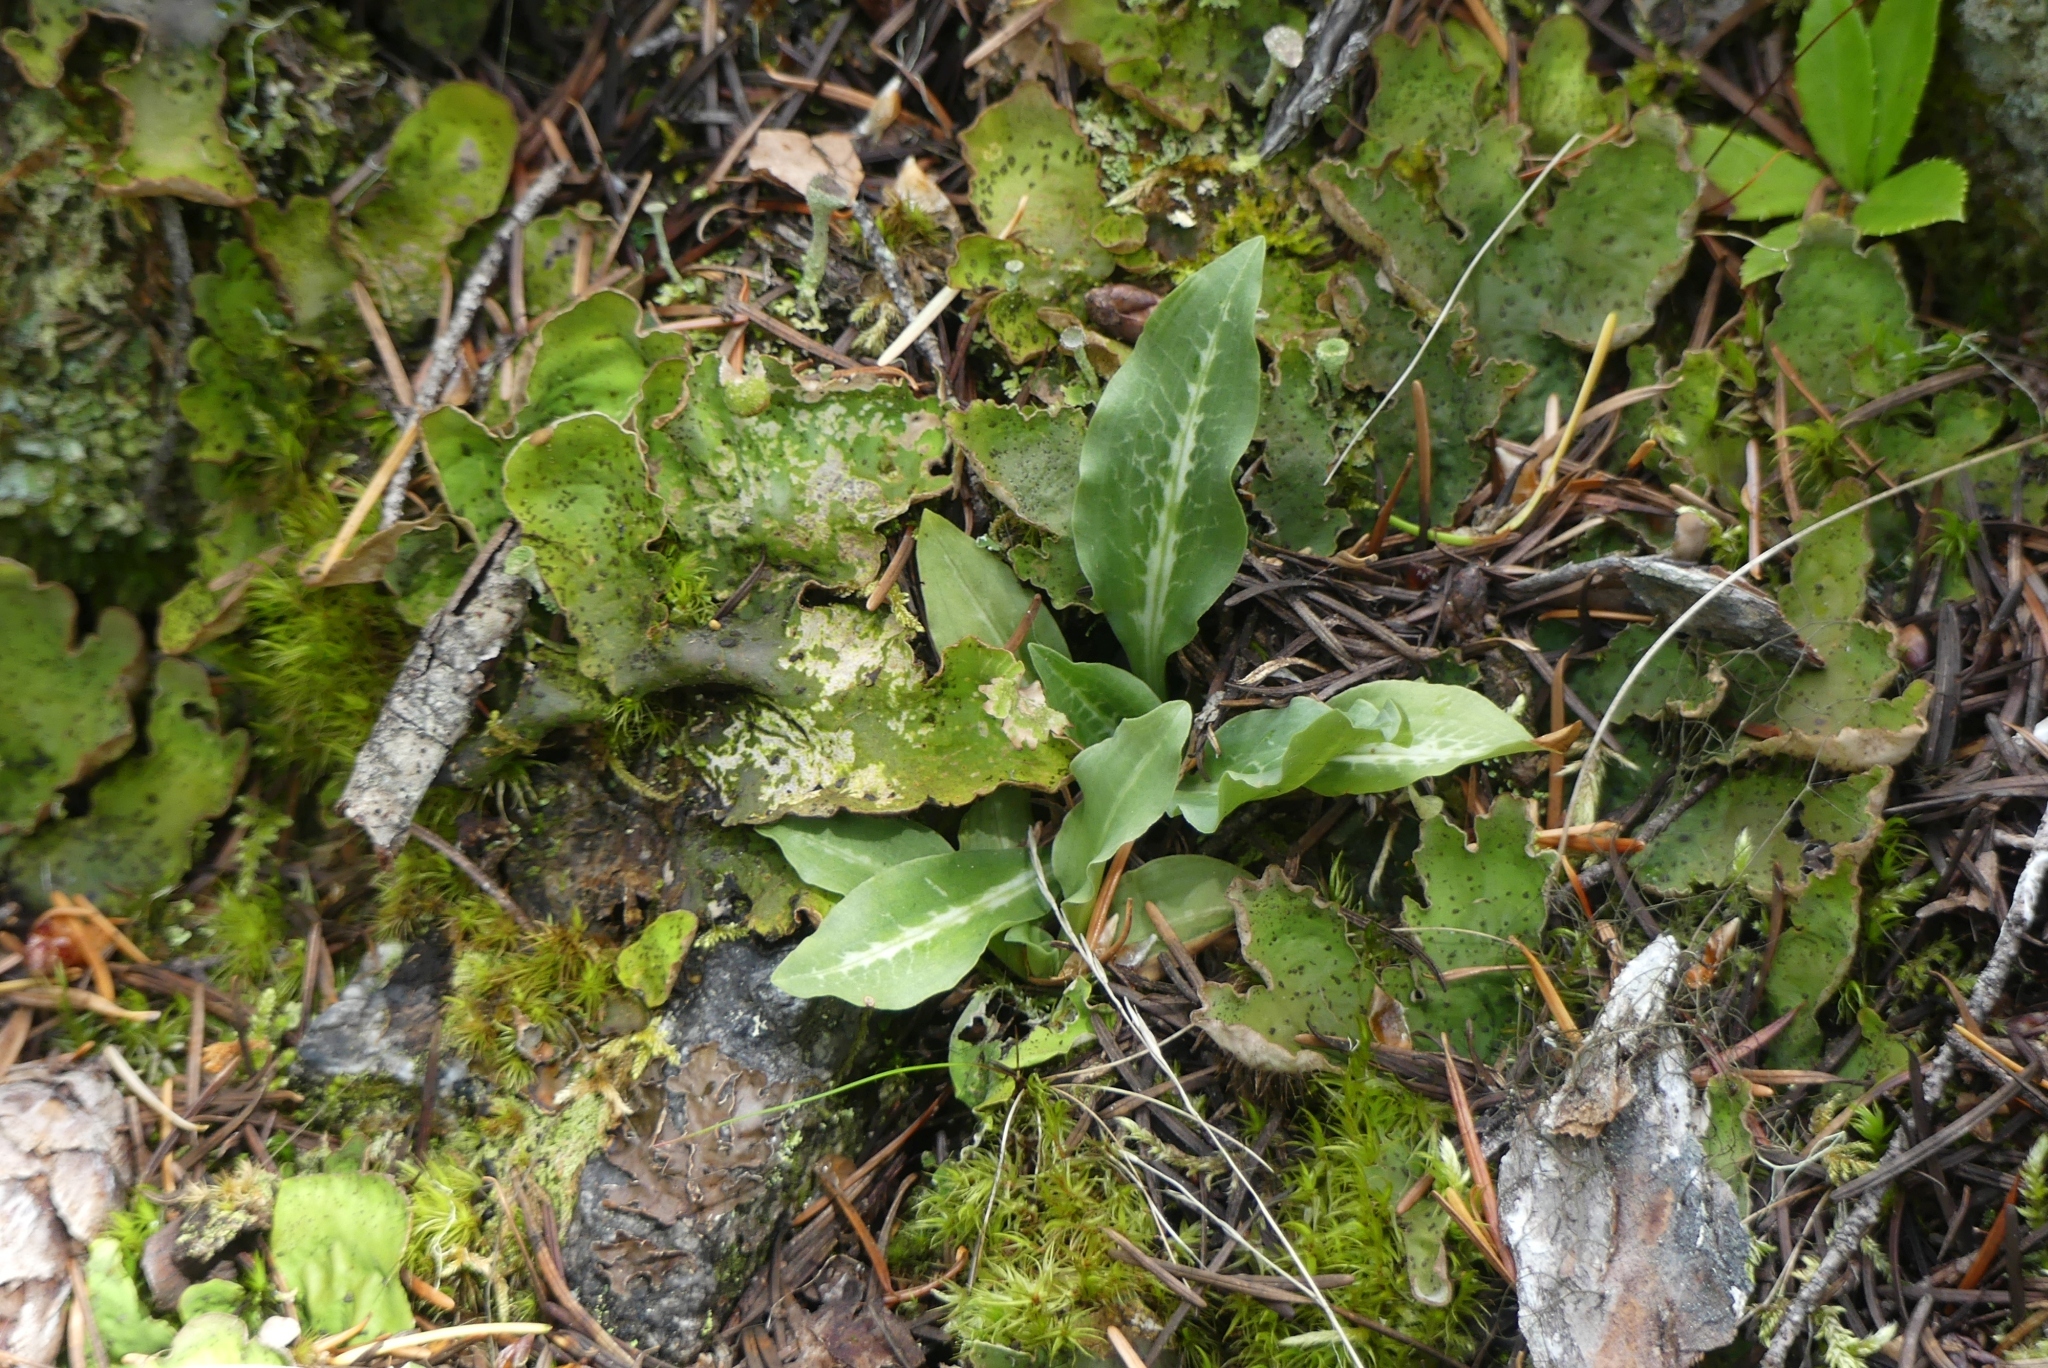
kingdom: Plantae
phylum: Tracheophyta
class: Liliopsida
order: Asparagales
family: Orchidaceae
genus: Goodyera
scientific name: Goodyera oblongifolia
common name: Giant rattlesnake-plantain
